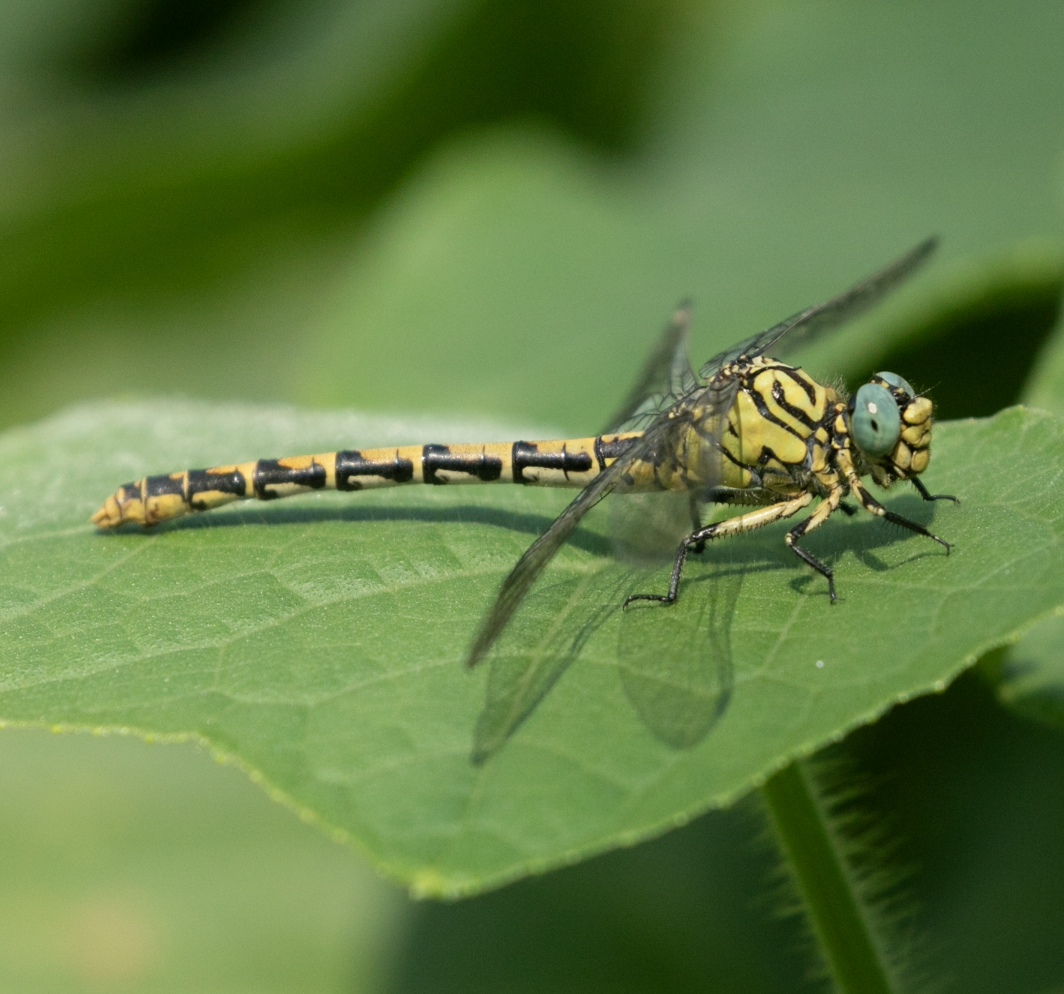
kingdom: Animalia
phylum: Arthropoda
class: Insecta
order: Odonata
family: Gomphidae
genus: Onychogomphus
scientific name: Onychogomphus forcipatus
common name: Small pincertail
